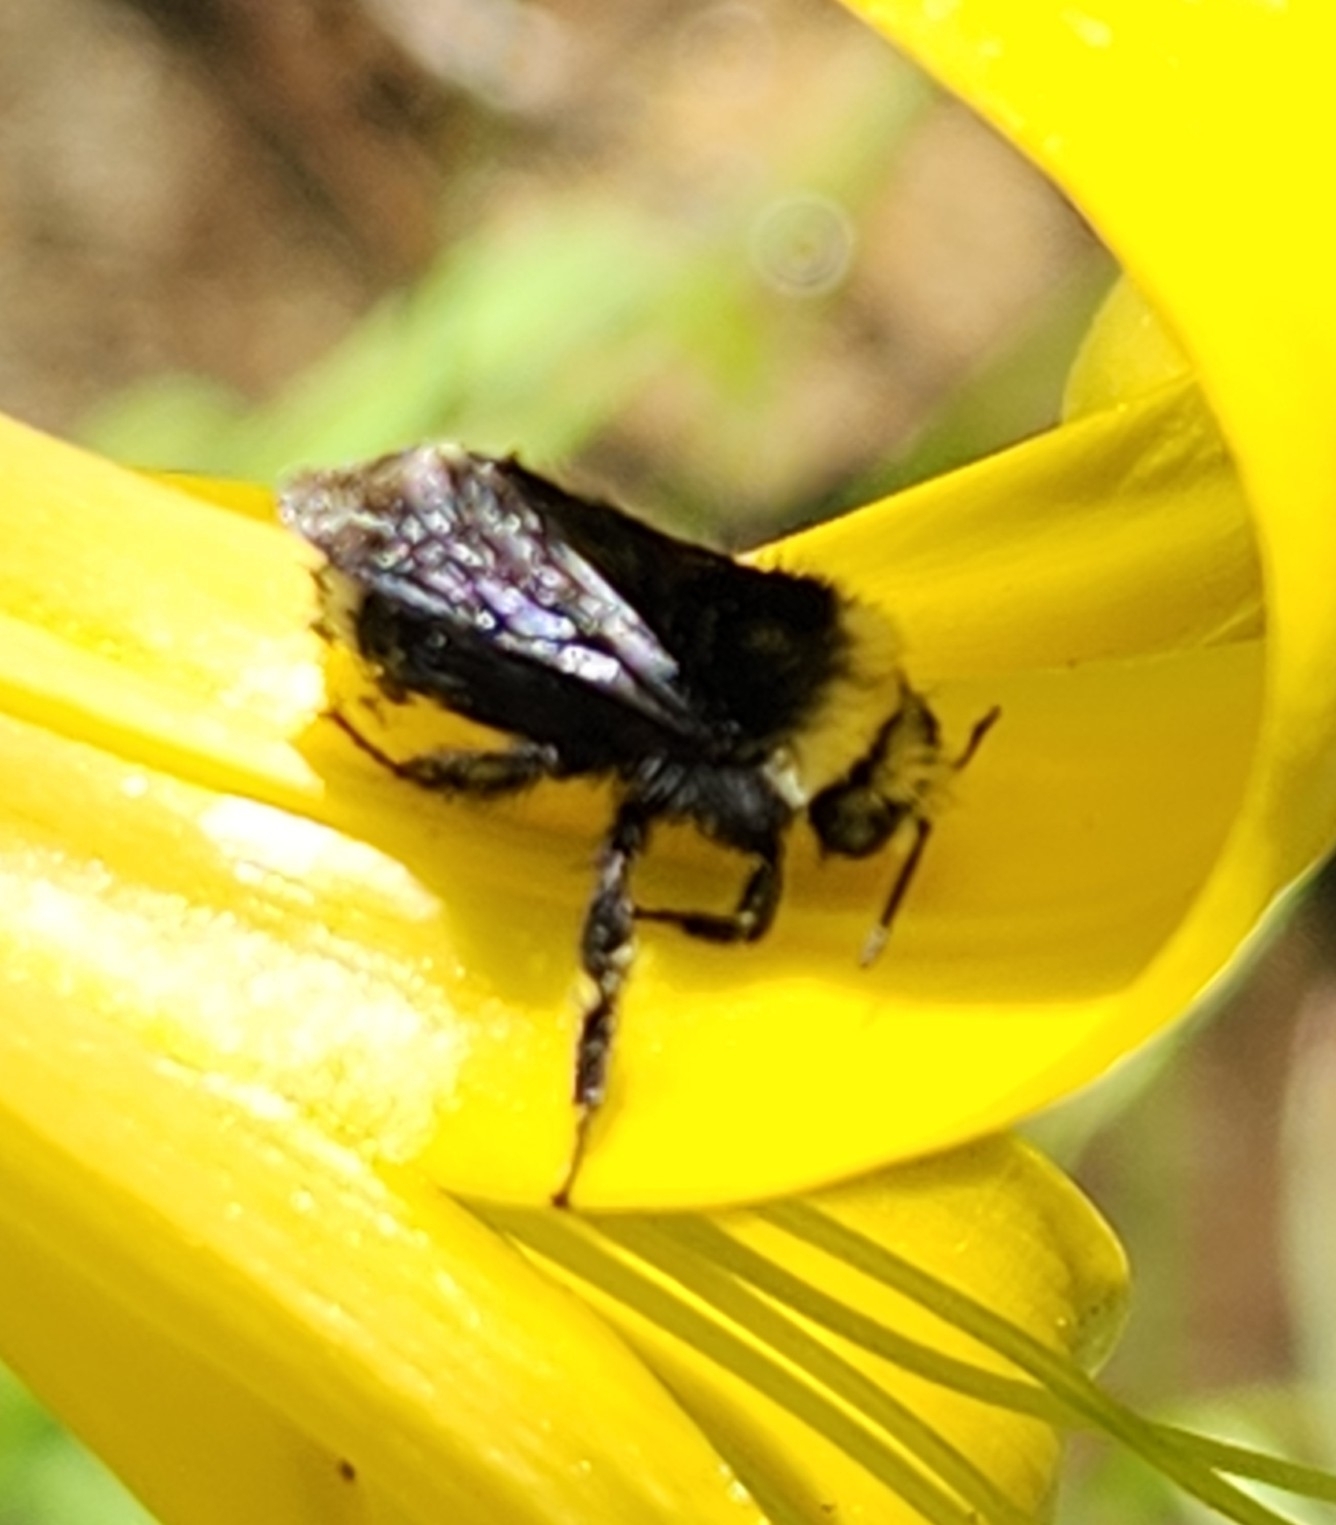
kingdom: Animalia
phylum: Arthropoda
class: Insecta
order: Hymenoptera
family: Apidae
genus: Bombus
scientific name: Bombus vosnesenskii
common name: Vosnesensky bumble bee
